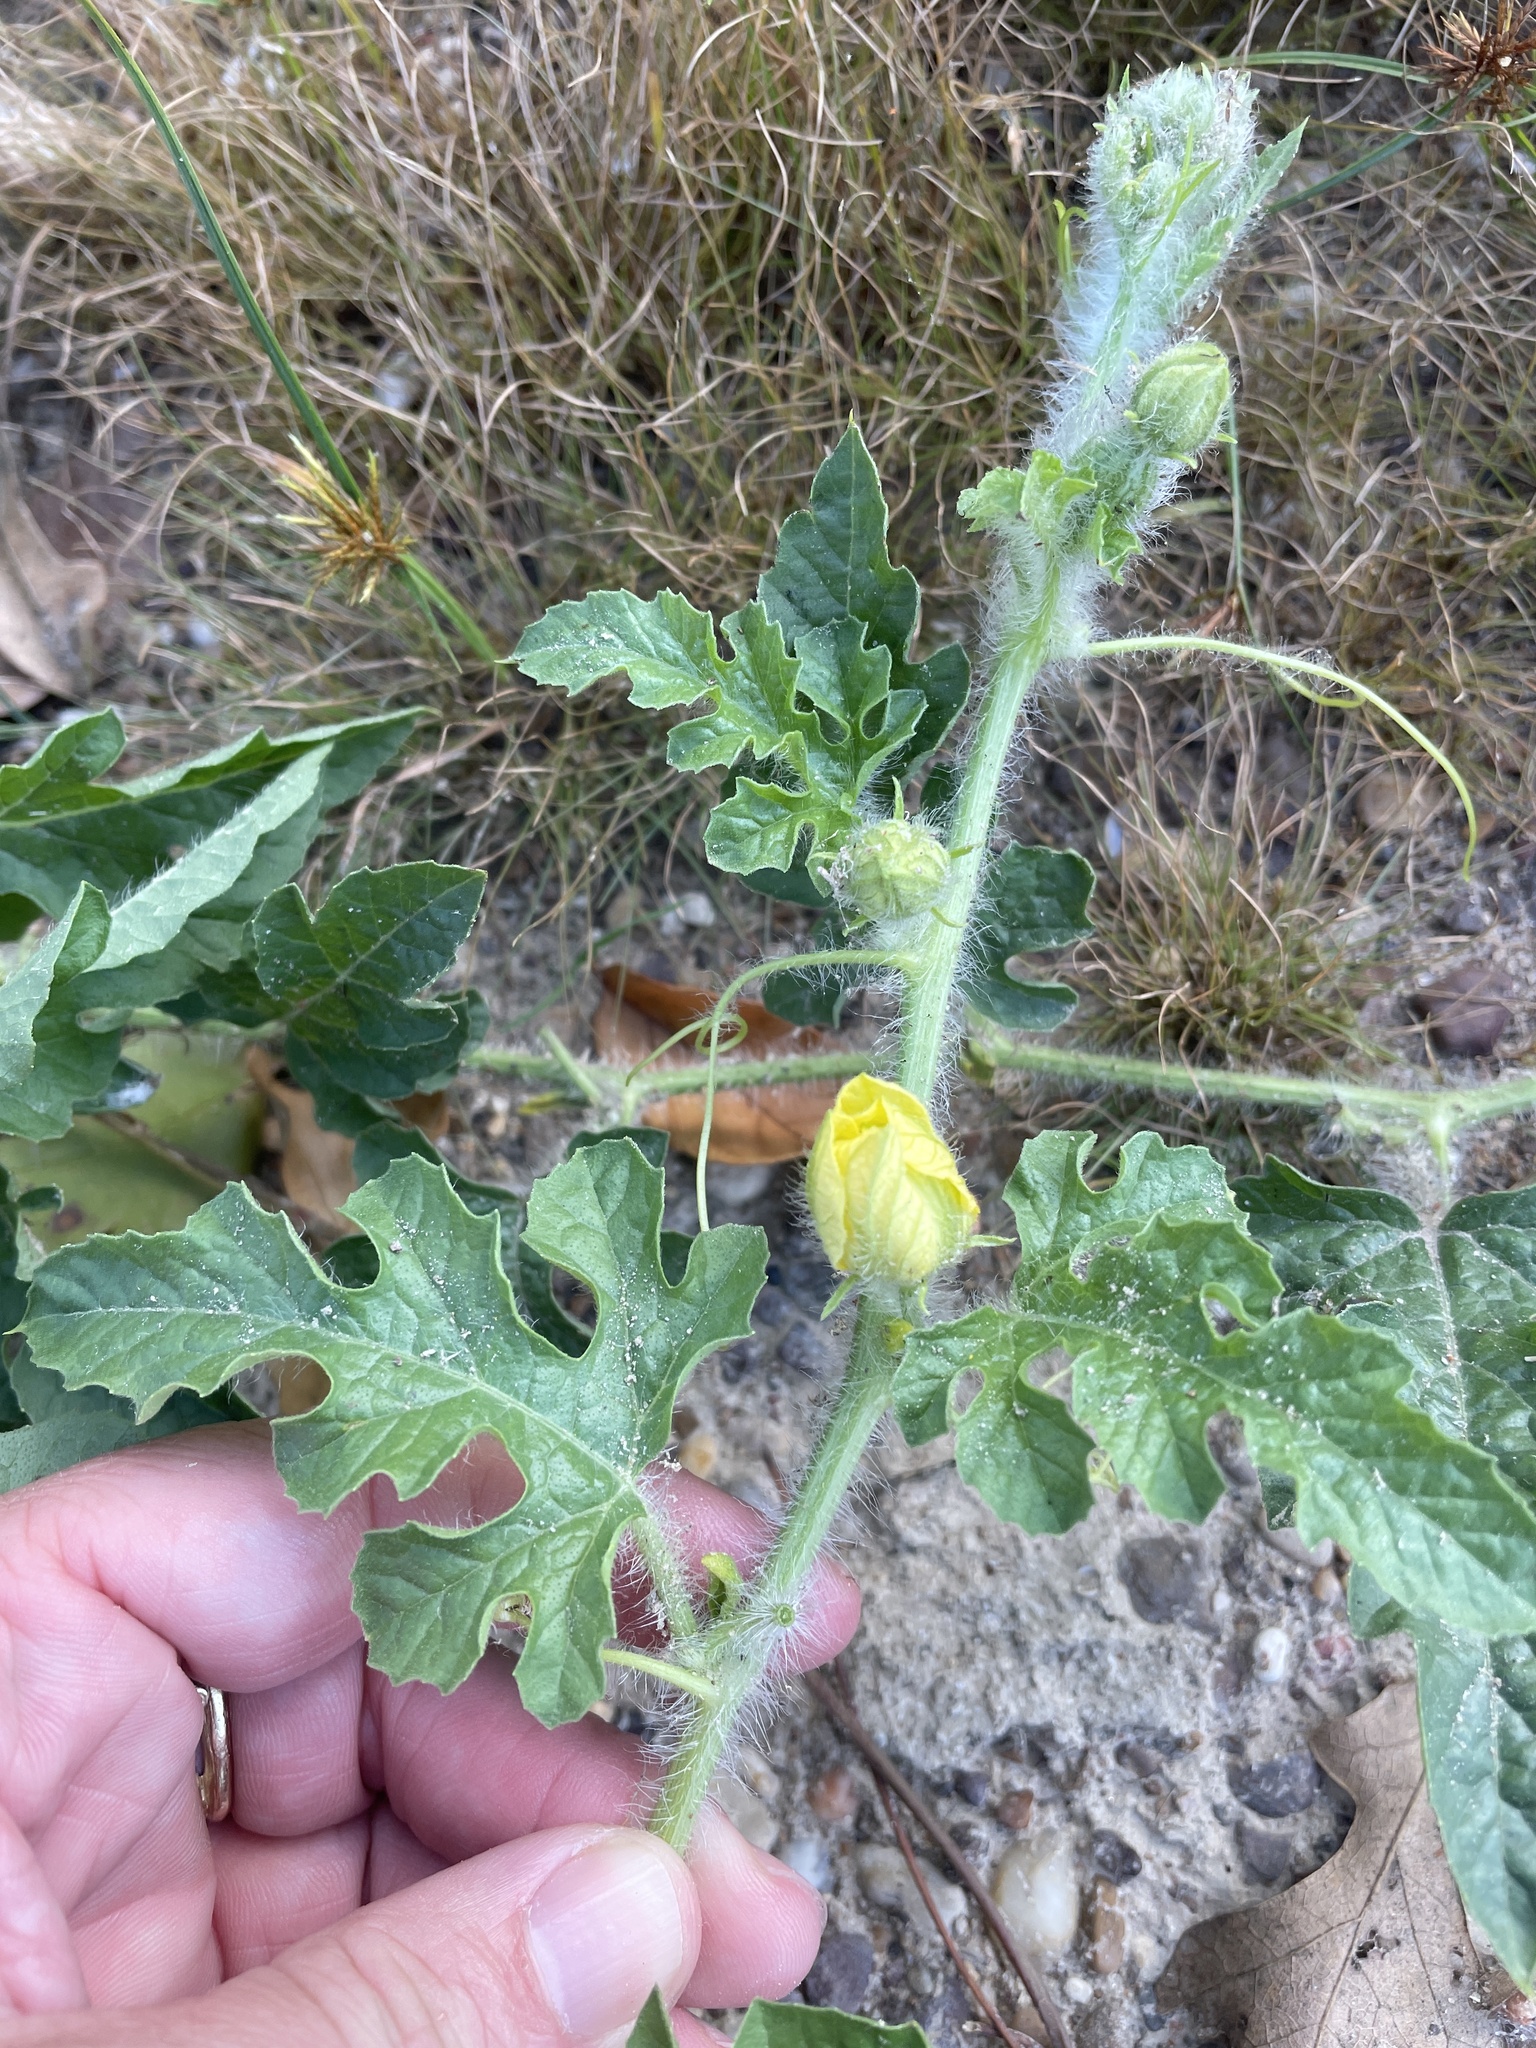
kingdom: Plantae
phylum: Tracheophyta
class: Magnoliopsida
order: Cucurbitales
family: Cucurbitaceae
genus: Cucumis
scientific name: Cucumis melo
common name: Melon
